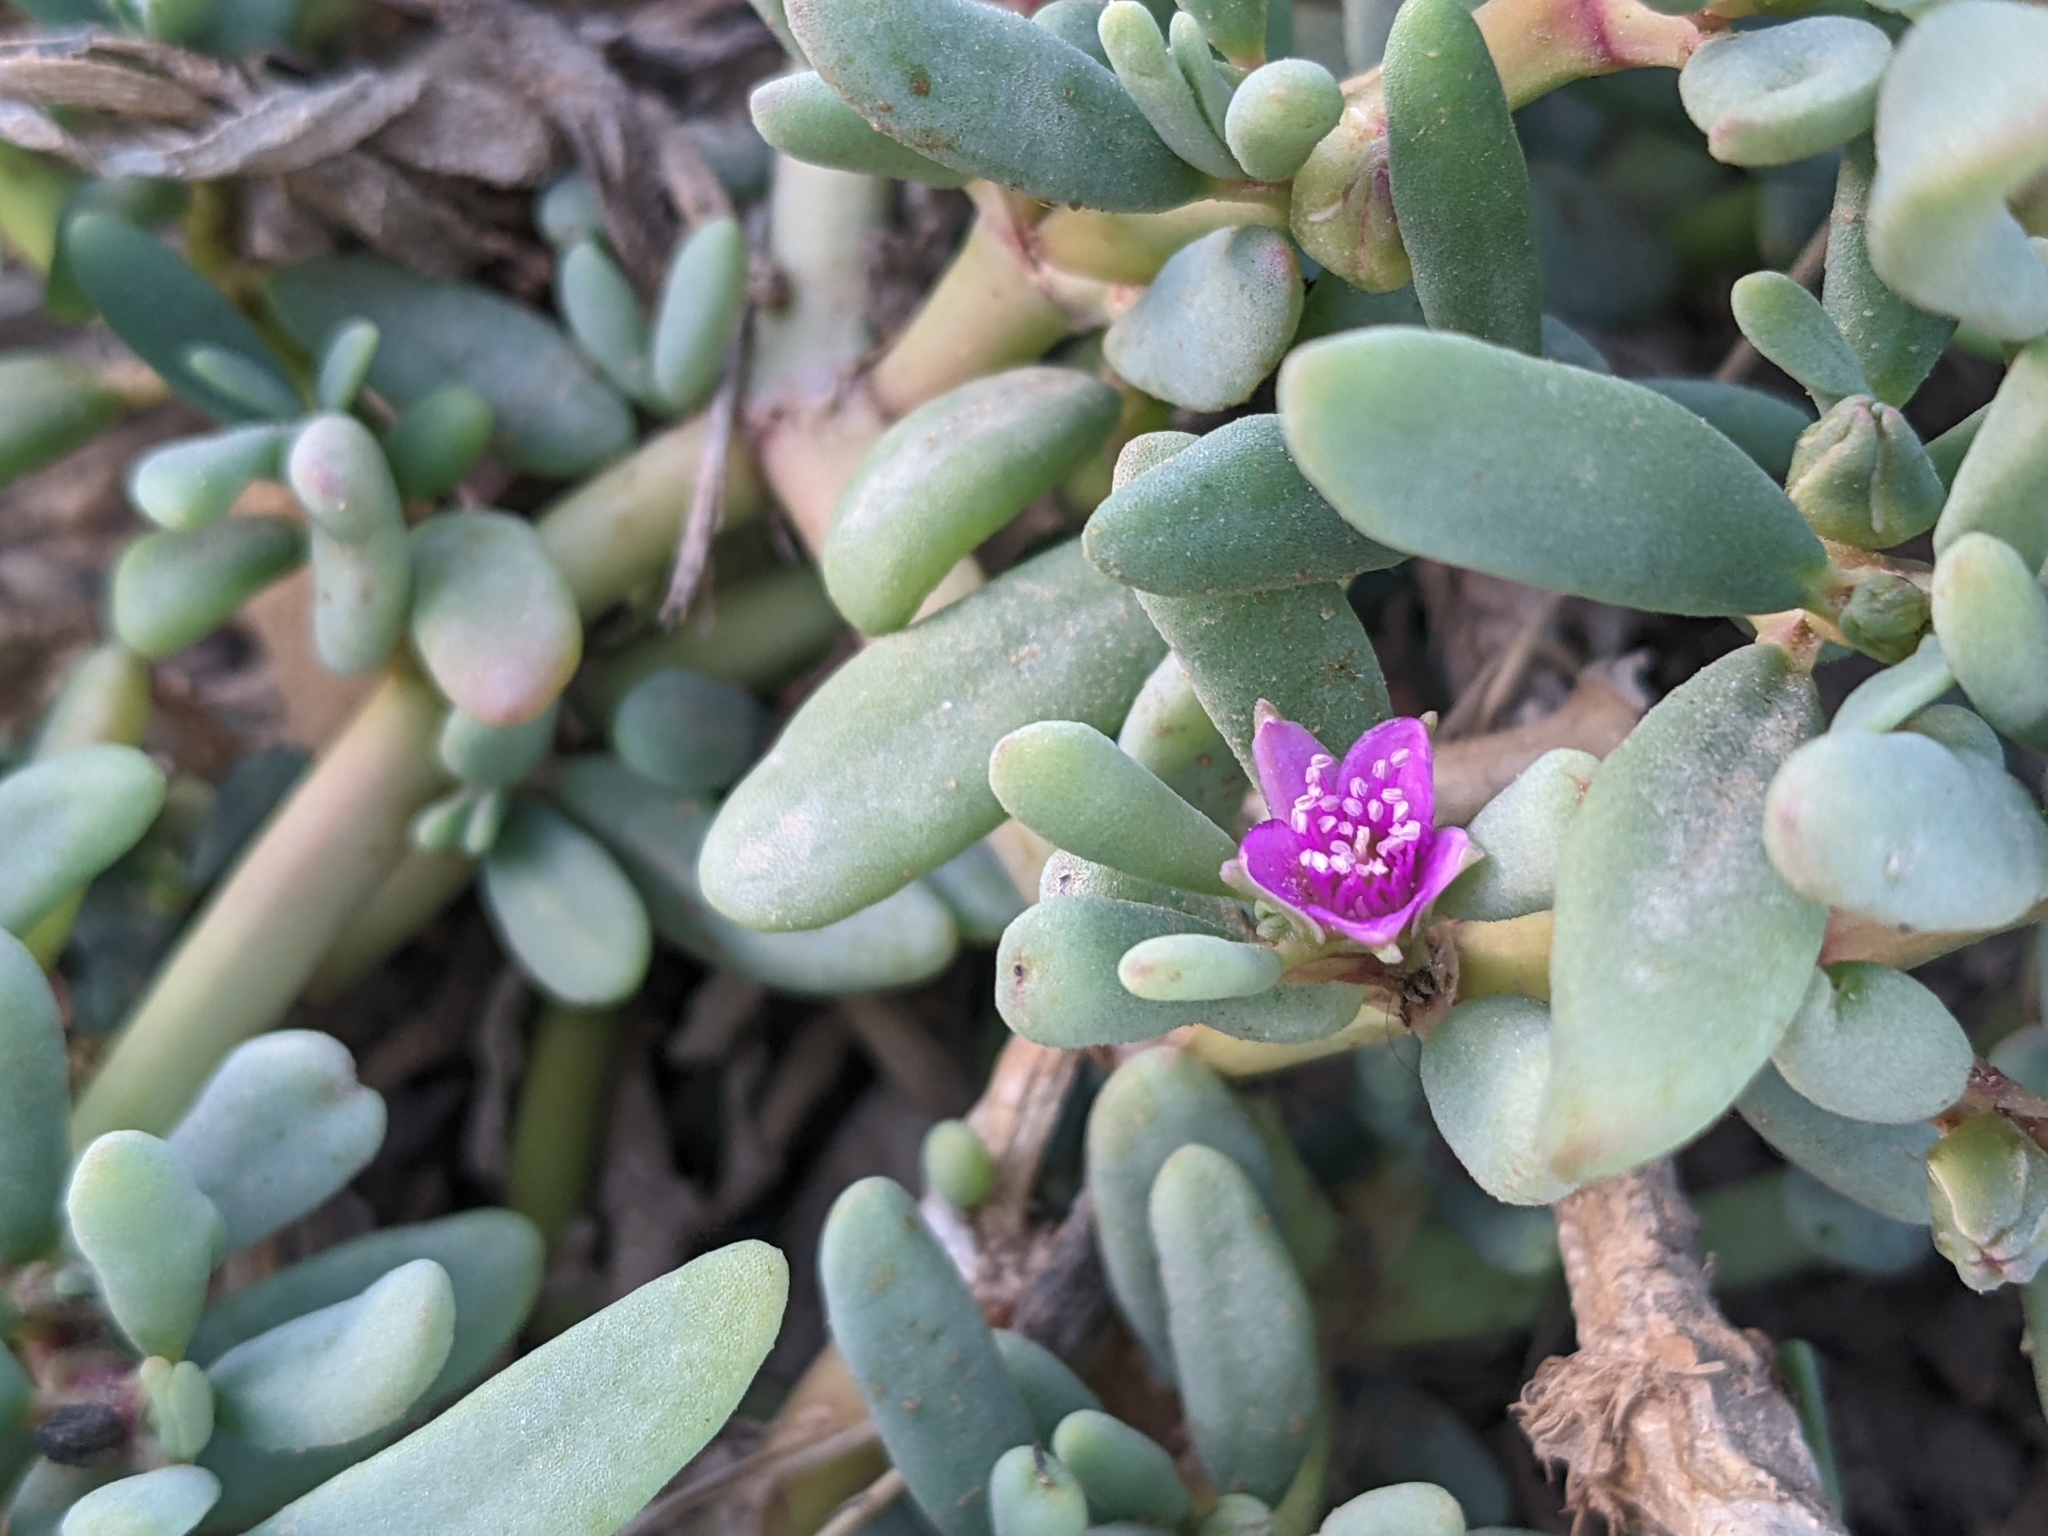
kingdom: Plantae
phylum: Tracheophyta
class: Magnoliopsida
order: Caryophyllales
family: Aizoaceae
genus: Sesuvium
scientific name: Sesuvium portulacastrum
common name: Sea-purslane
